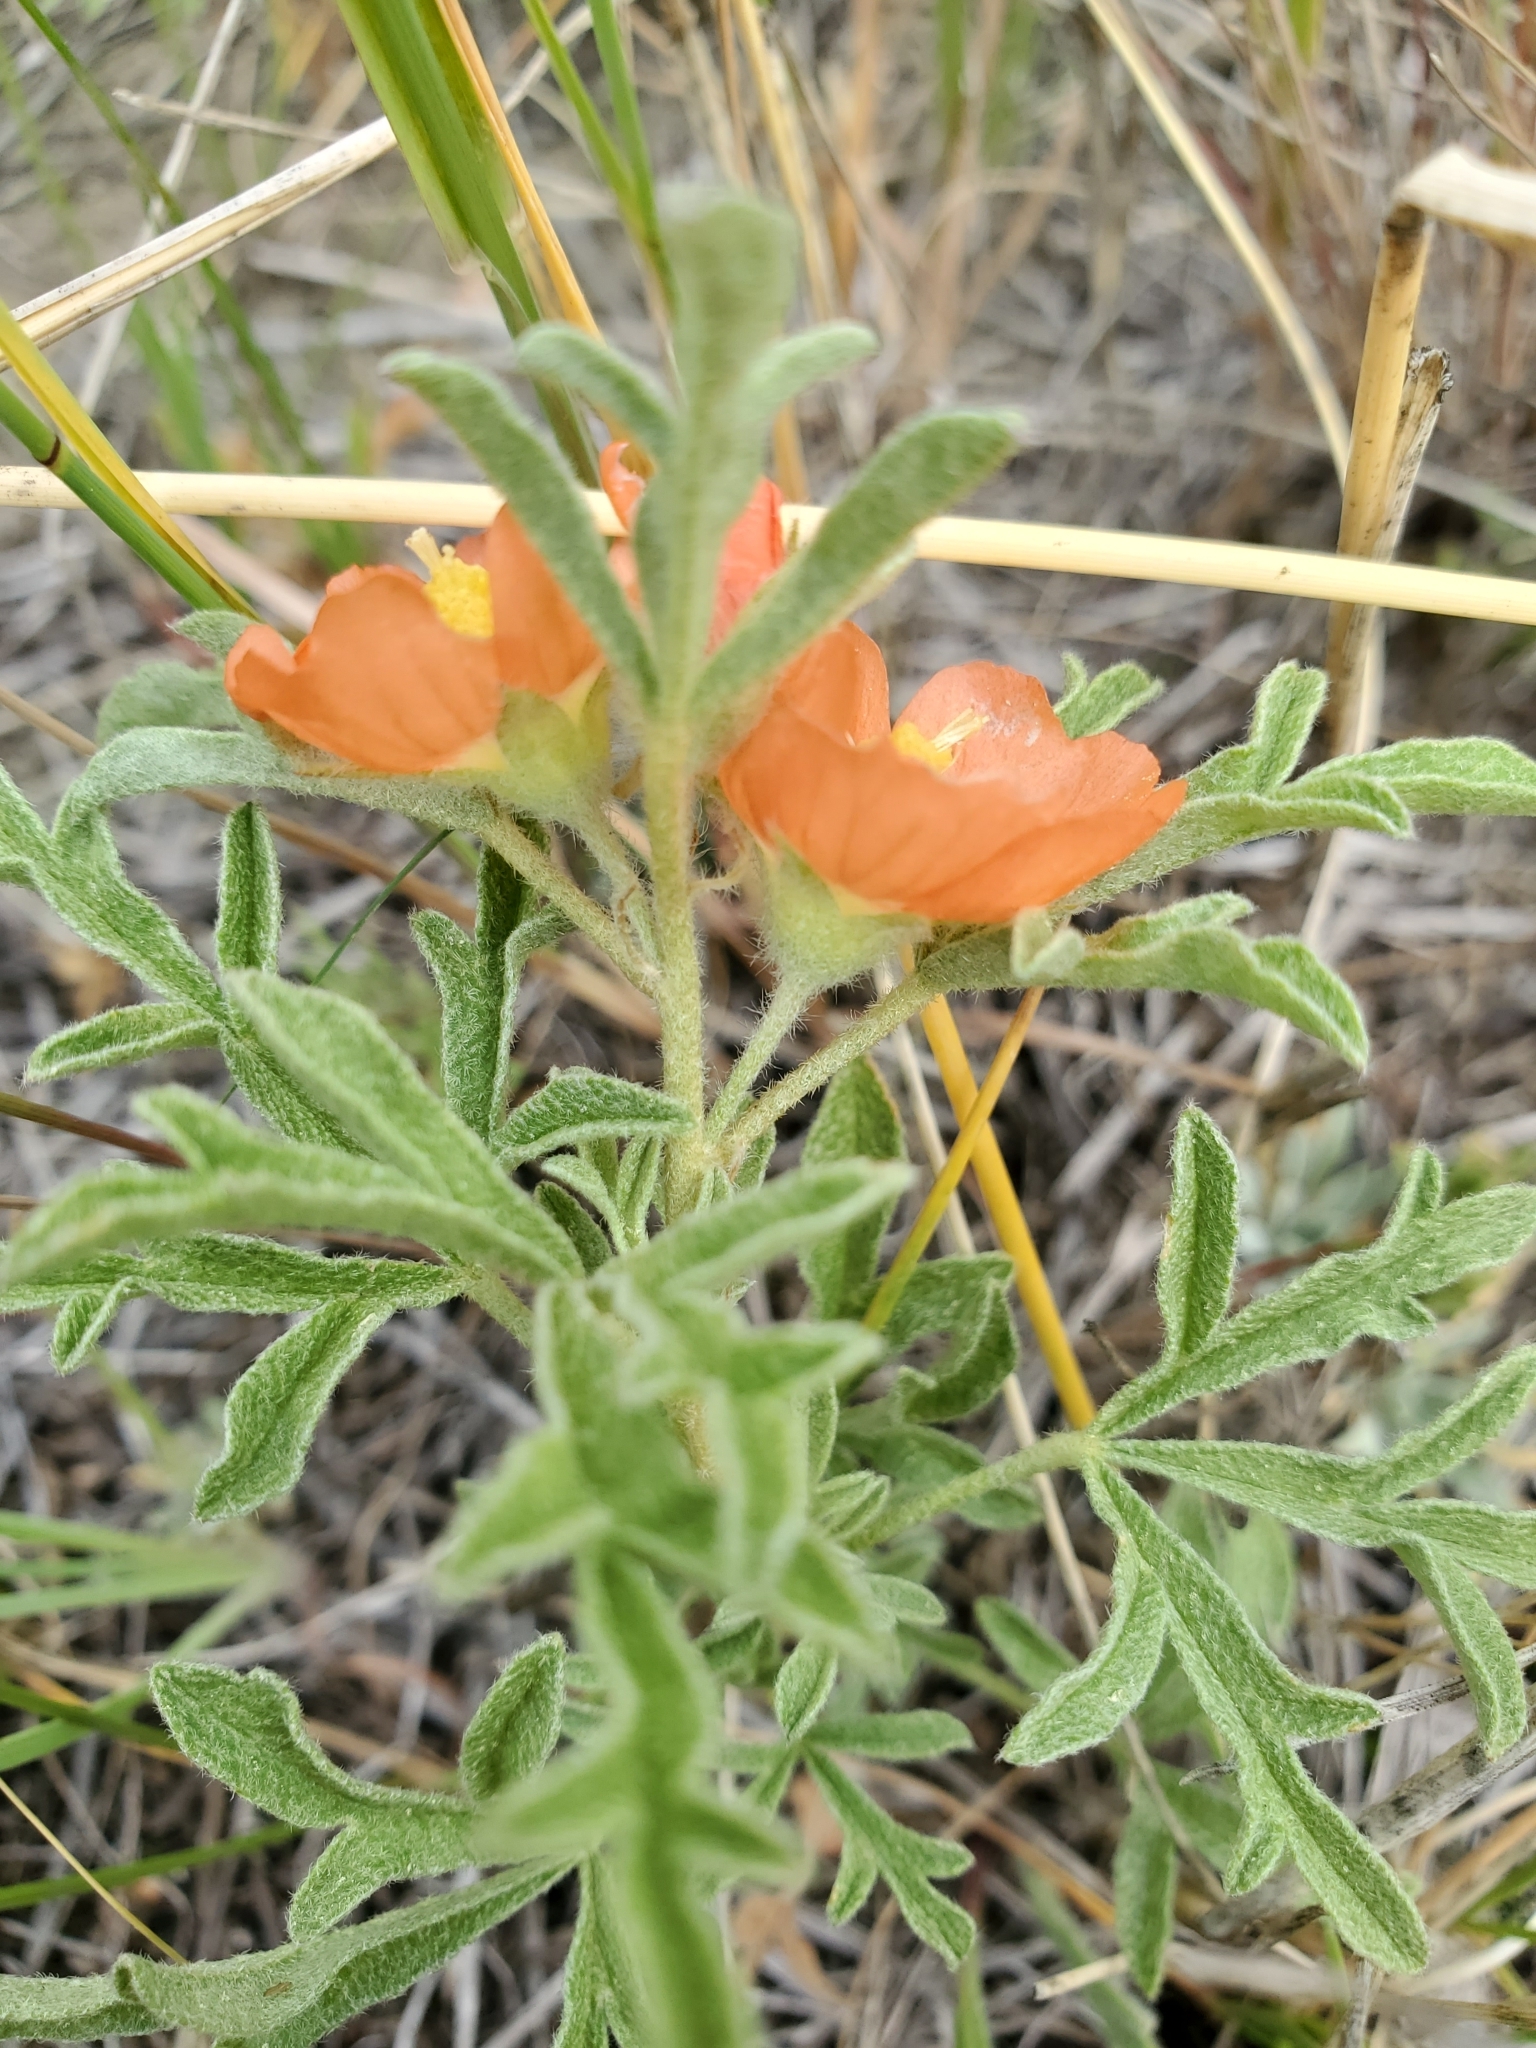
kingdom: Plantae
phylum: Tracheophyta
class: Magnoliopsida
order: Malvales
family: Malvaceae
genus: Sphaeralcea
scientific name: Sphaeralcea coccinea
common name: Moss-rose
